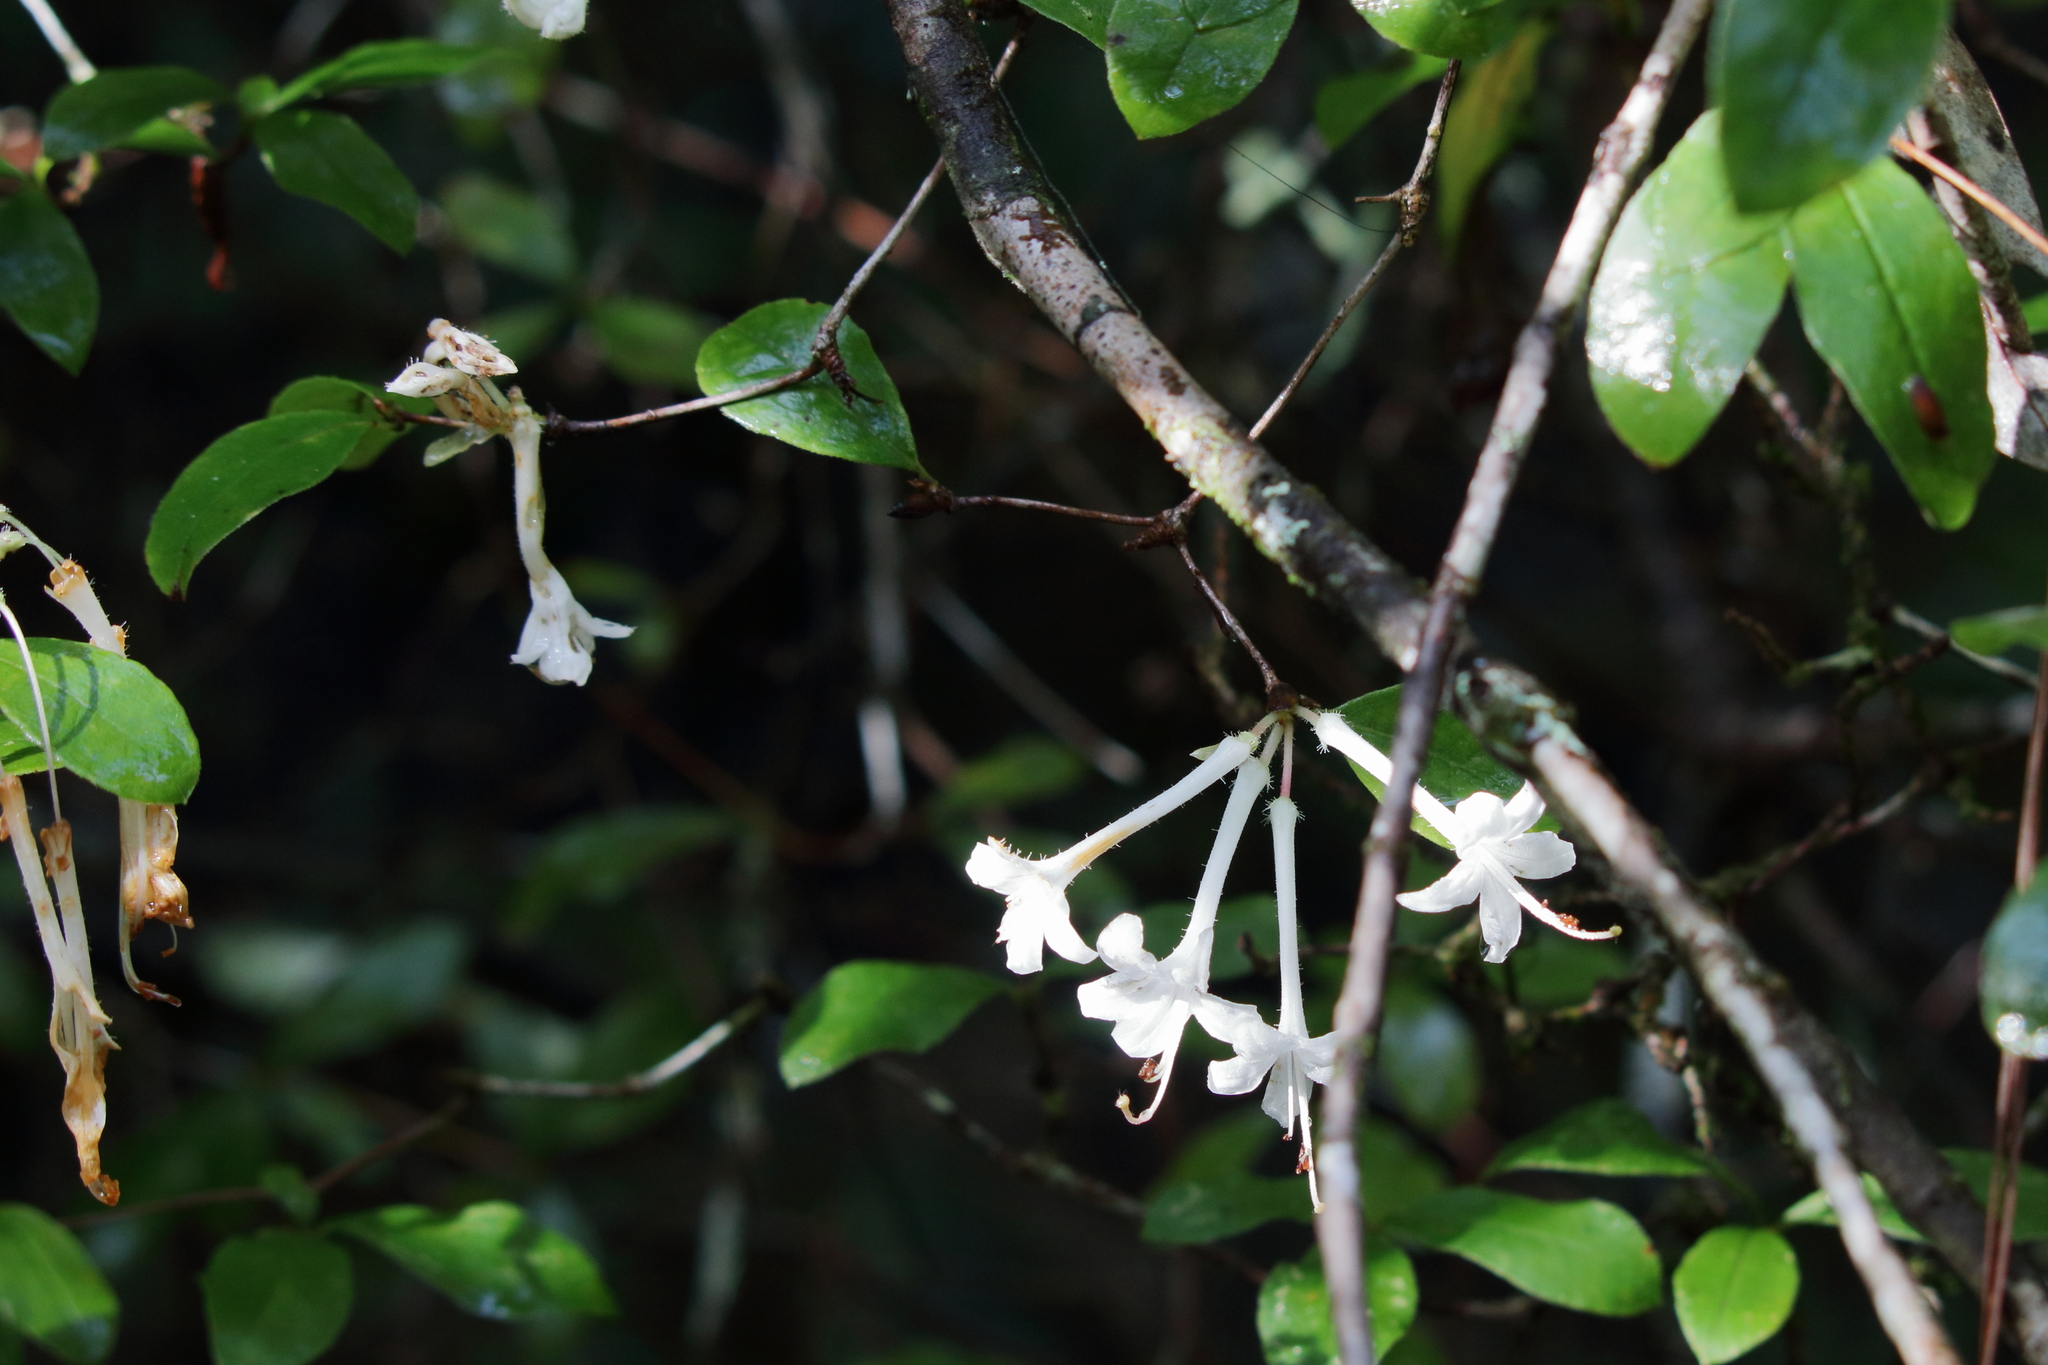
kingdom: Plantae
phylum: Tracheophyta
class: Magnoliopsida
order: Ericales
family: Ericaceae
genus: Rhododendron
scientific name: Rhododendron serrulatum
